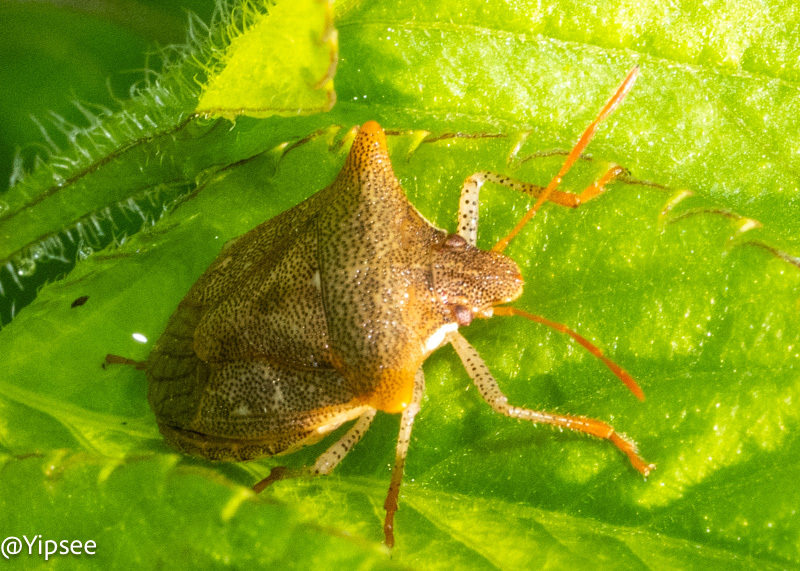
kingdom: Animalia
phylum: Arthropoda
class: Insecta
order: Hemiptera
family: Pentatomidae
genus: Carbula
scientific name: Carbula crassiventris
